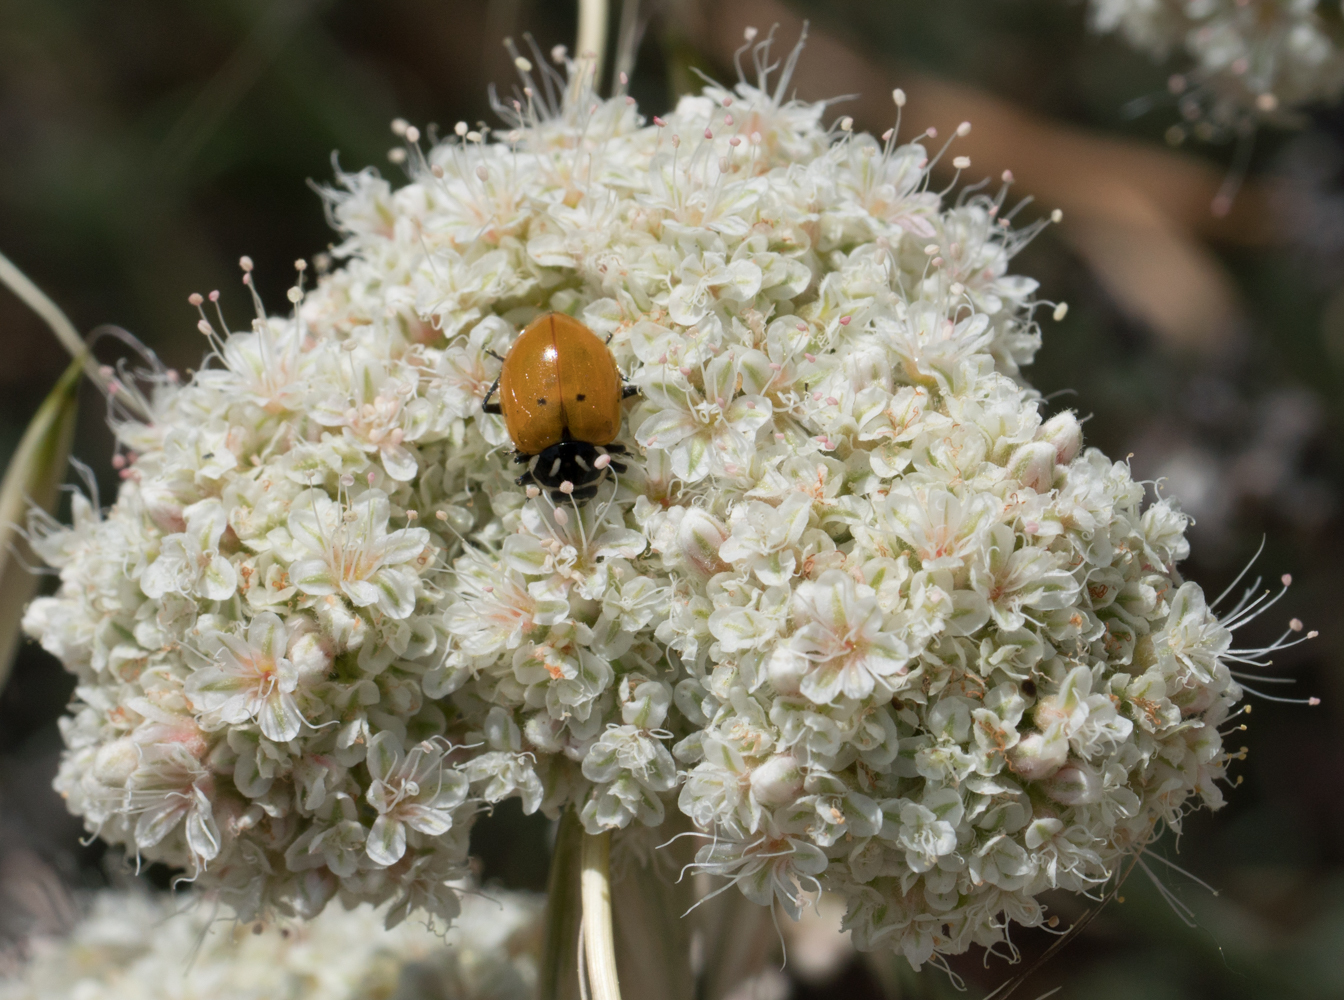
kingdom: Animalia
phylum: Arthropoda
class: Insecta
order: Coleoptera
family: Coccinellidae
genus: Hippodamia
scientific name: Hippodamia convergens
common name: Convergent lady beetle
